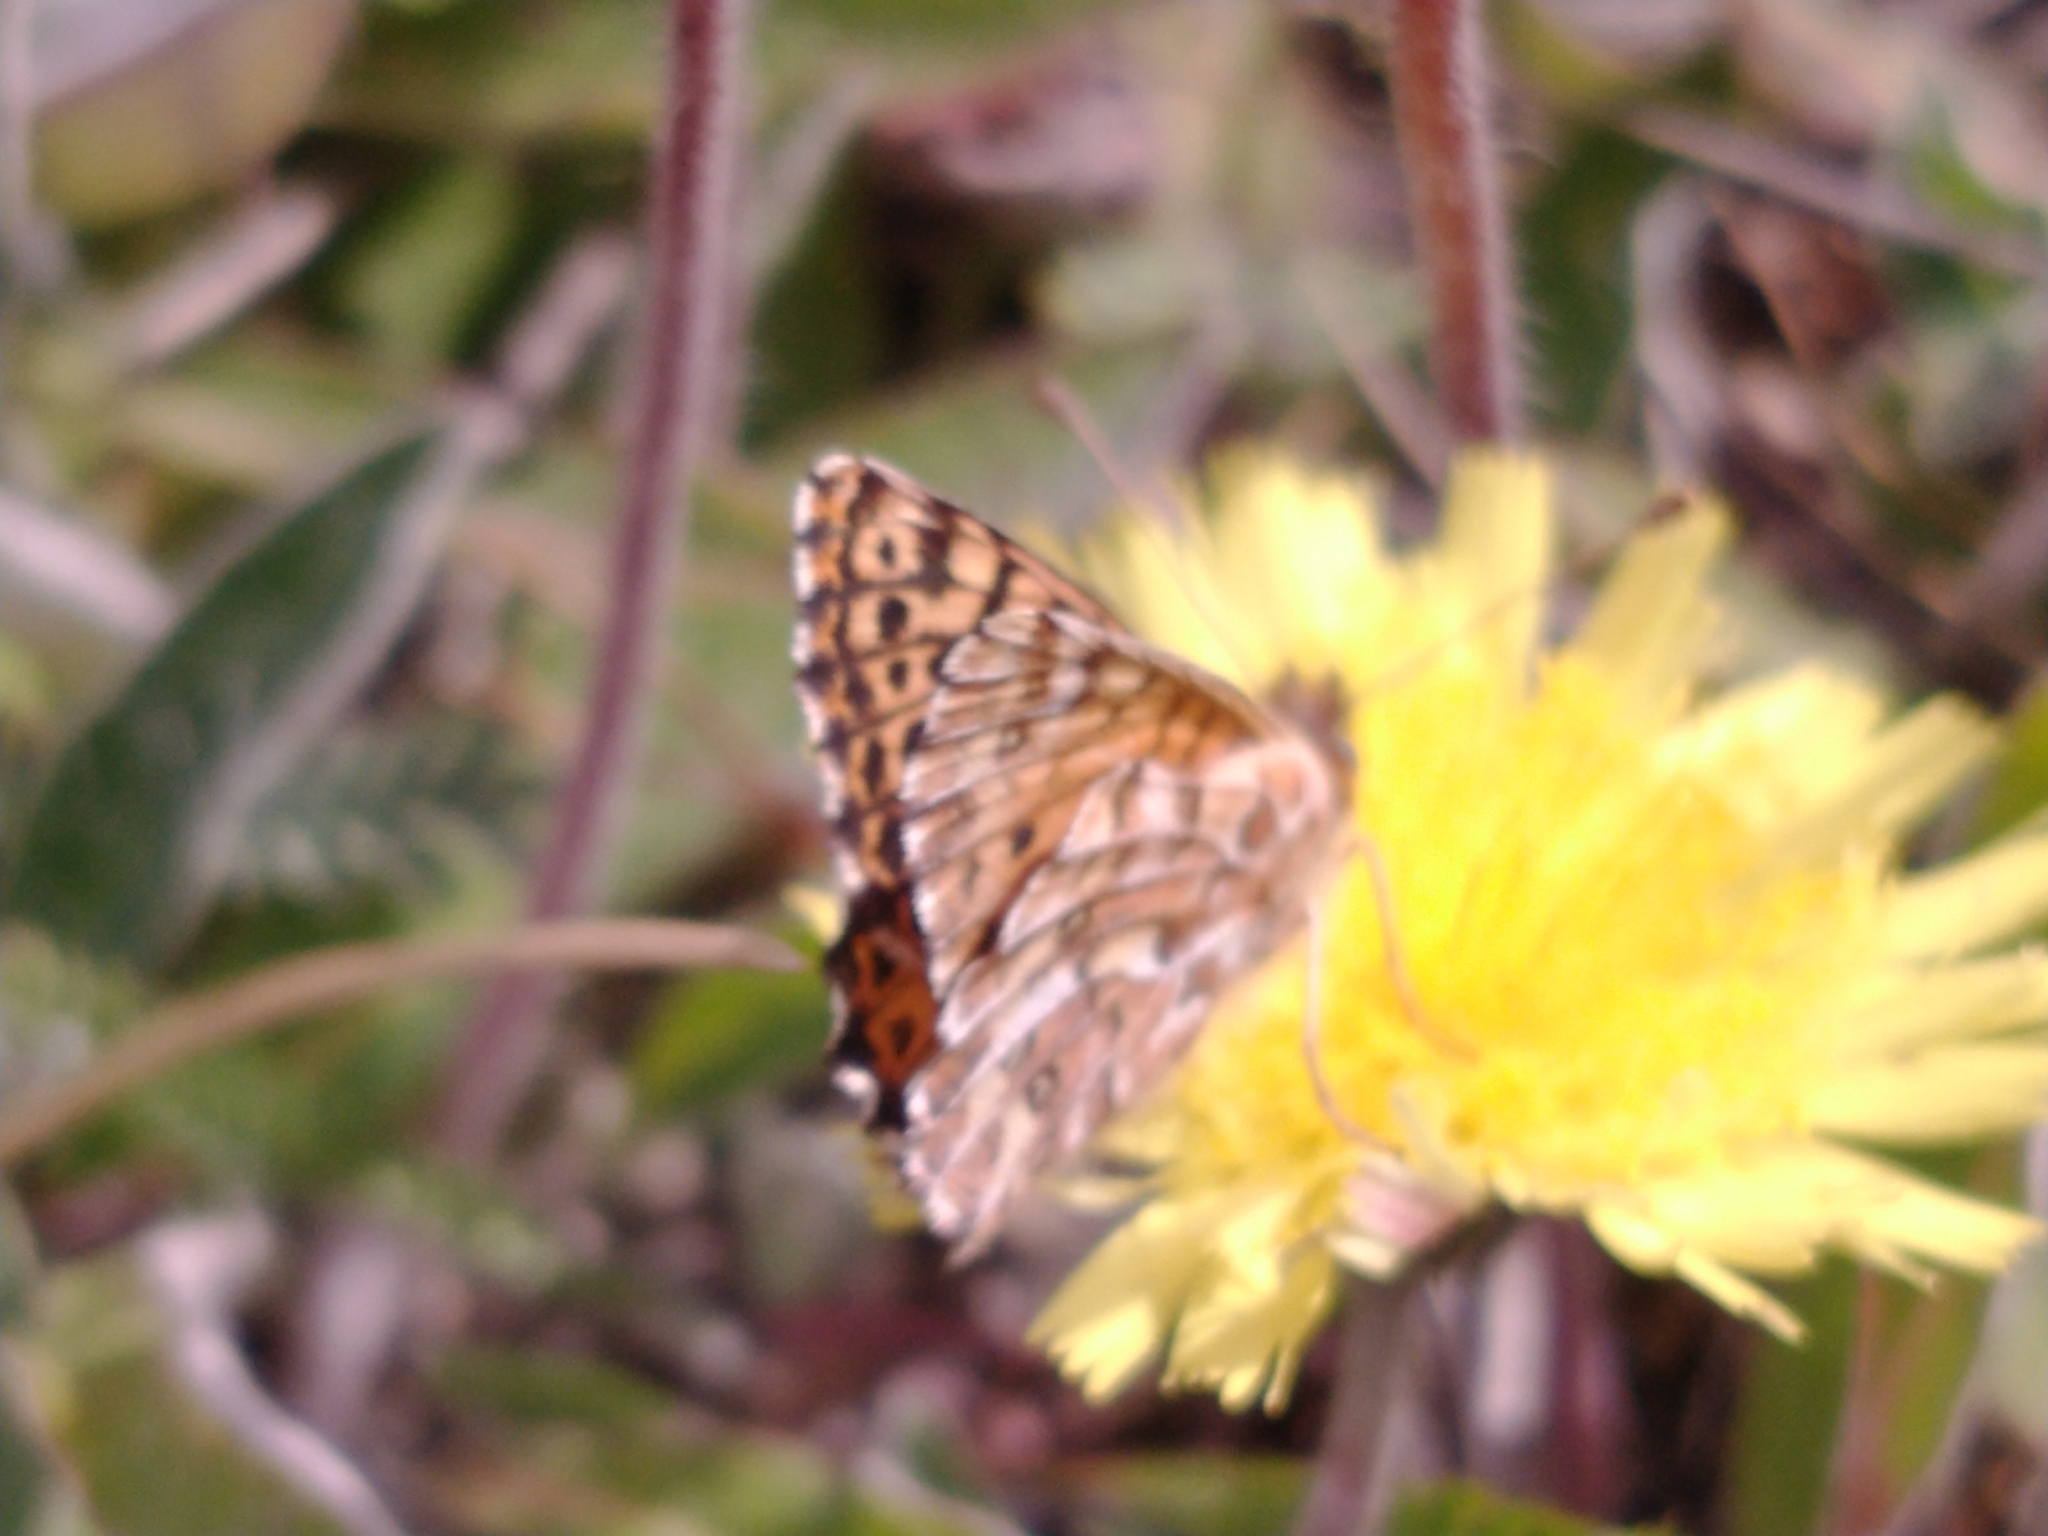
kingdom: Animalia
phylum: Arthropoda
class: Insecta
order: Lepidoptera
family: Nymphalidae
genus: Issoria
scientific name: Issoria Yramea lathonoides
